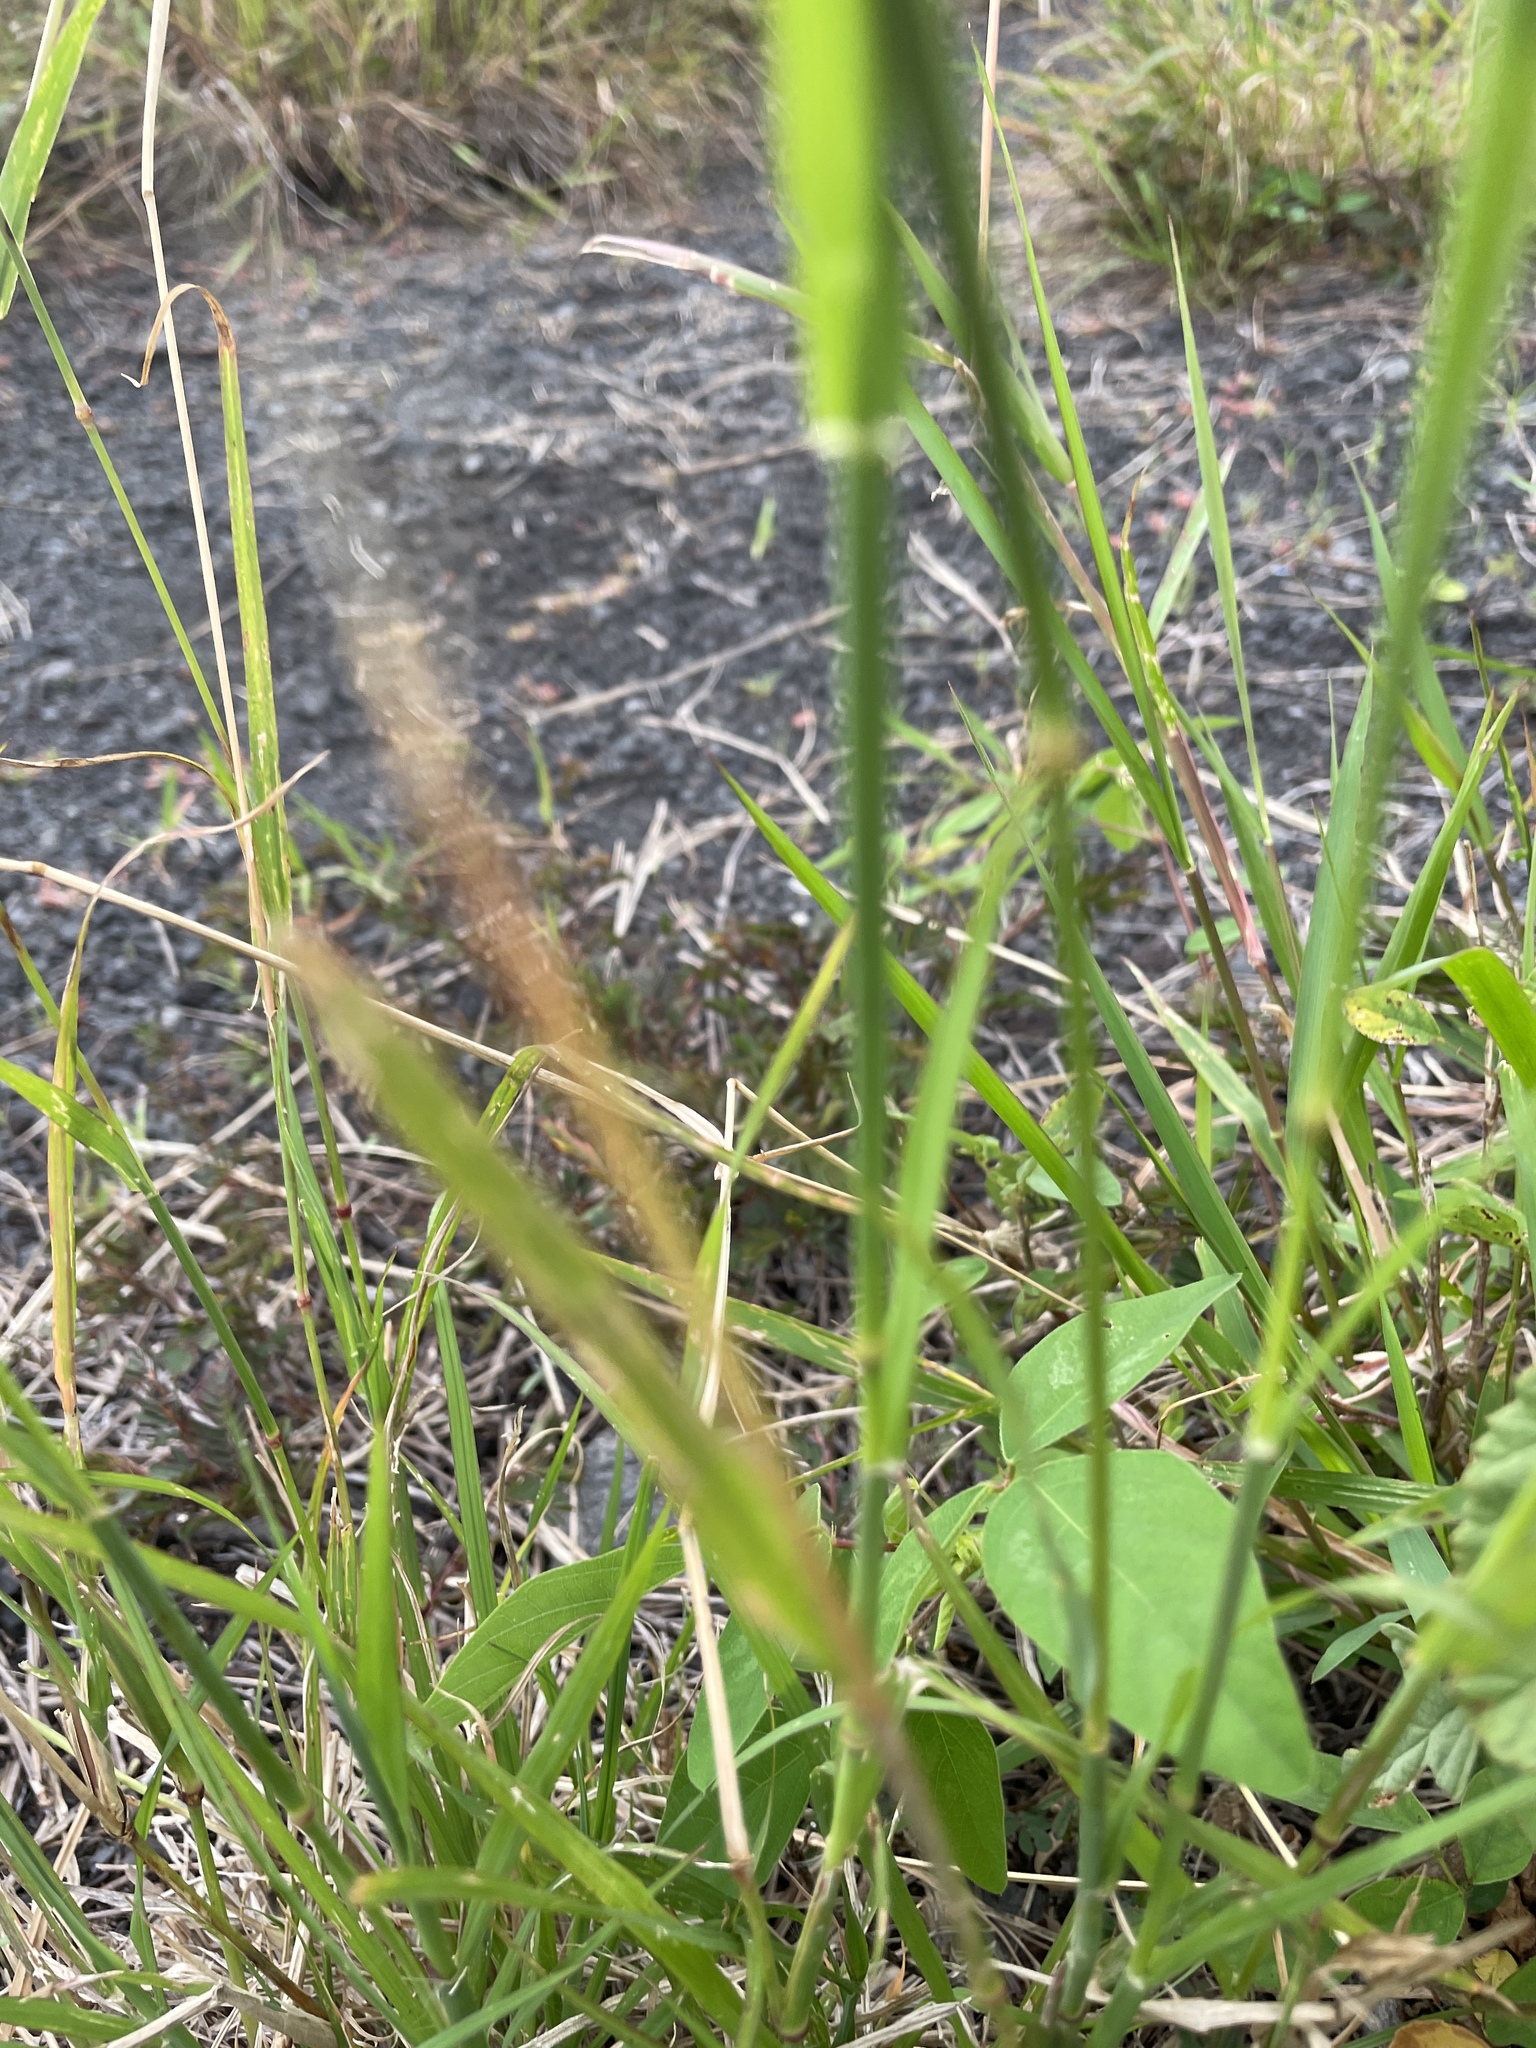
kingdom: Plantae
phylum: Tracheophyta
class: Liliopsida
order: Poales
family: Poaceae
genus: Chloris
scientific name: Chloris barbata
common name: Swollen fingergrass
